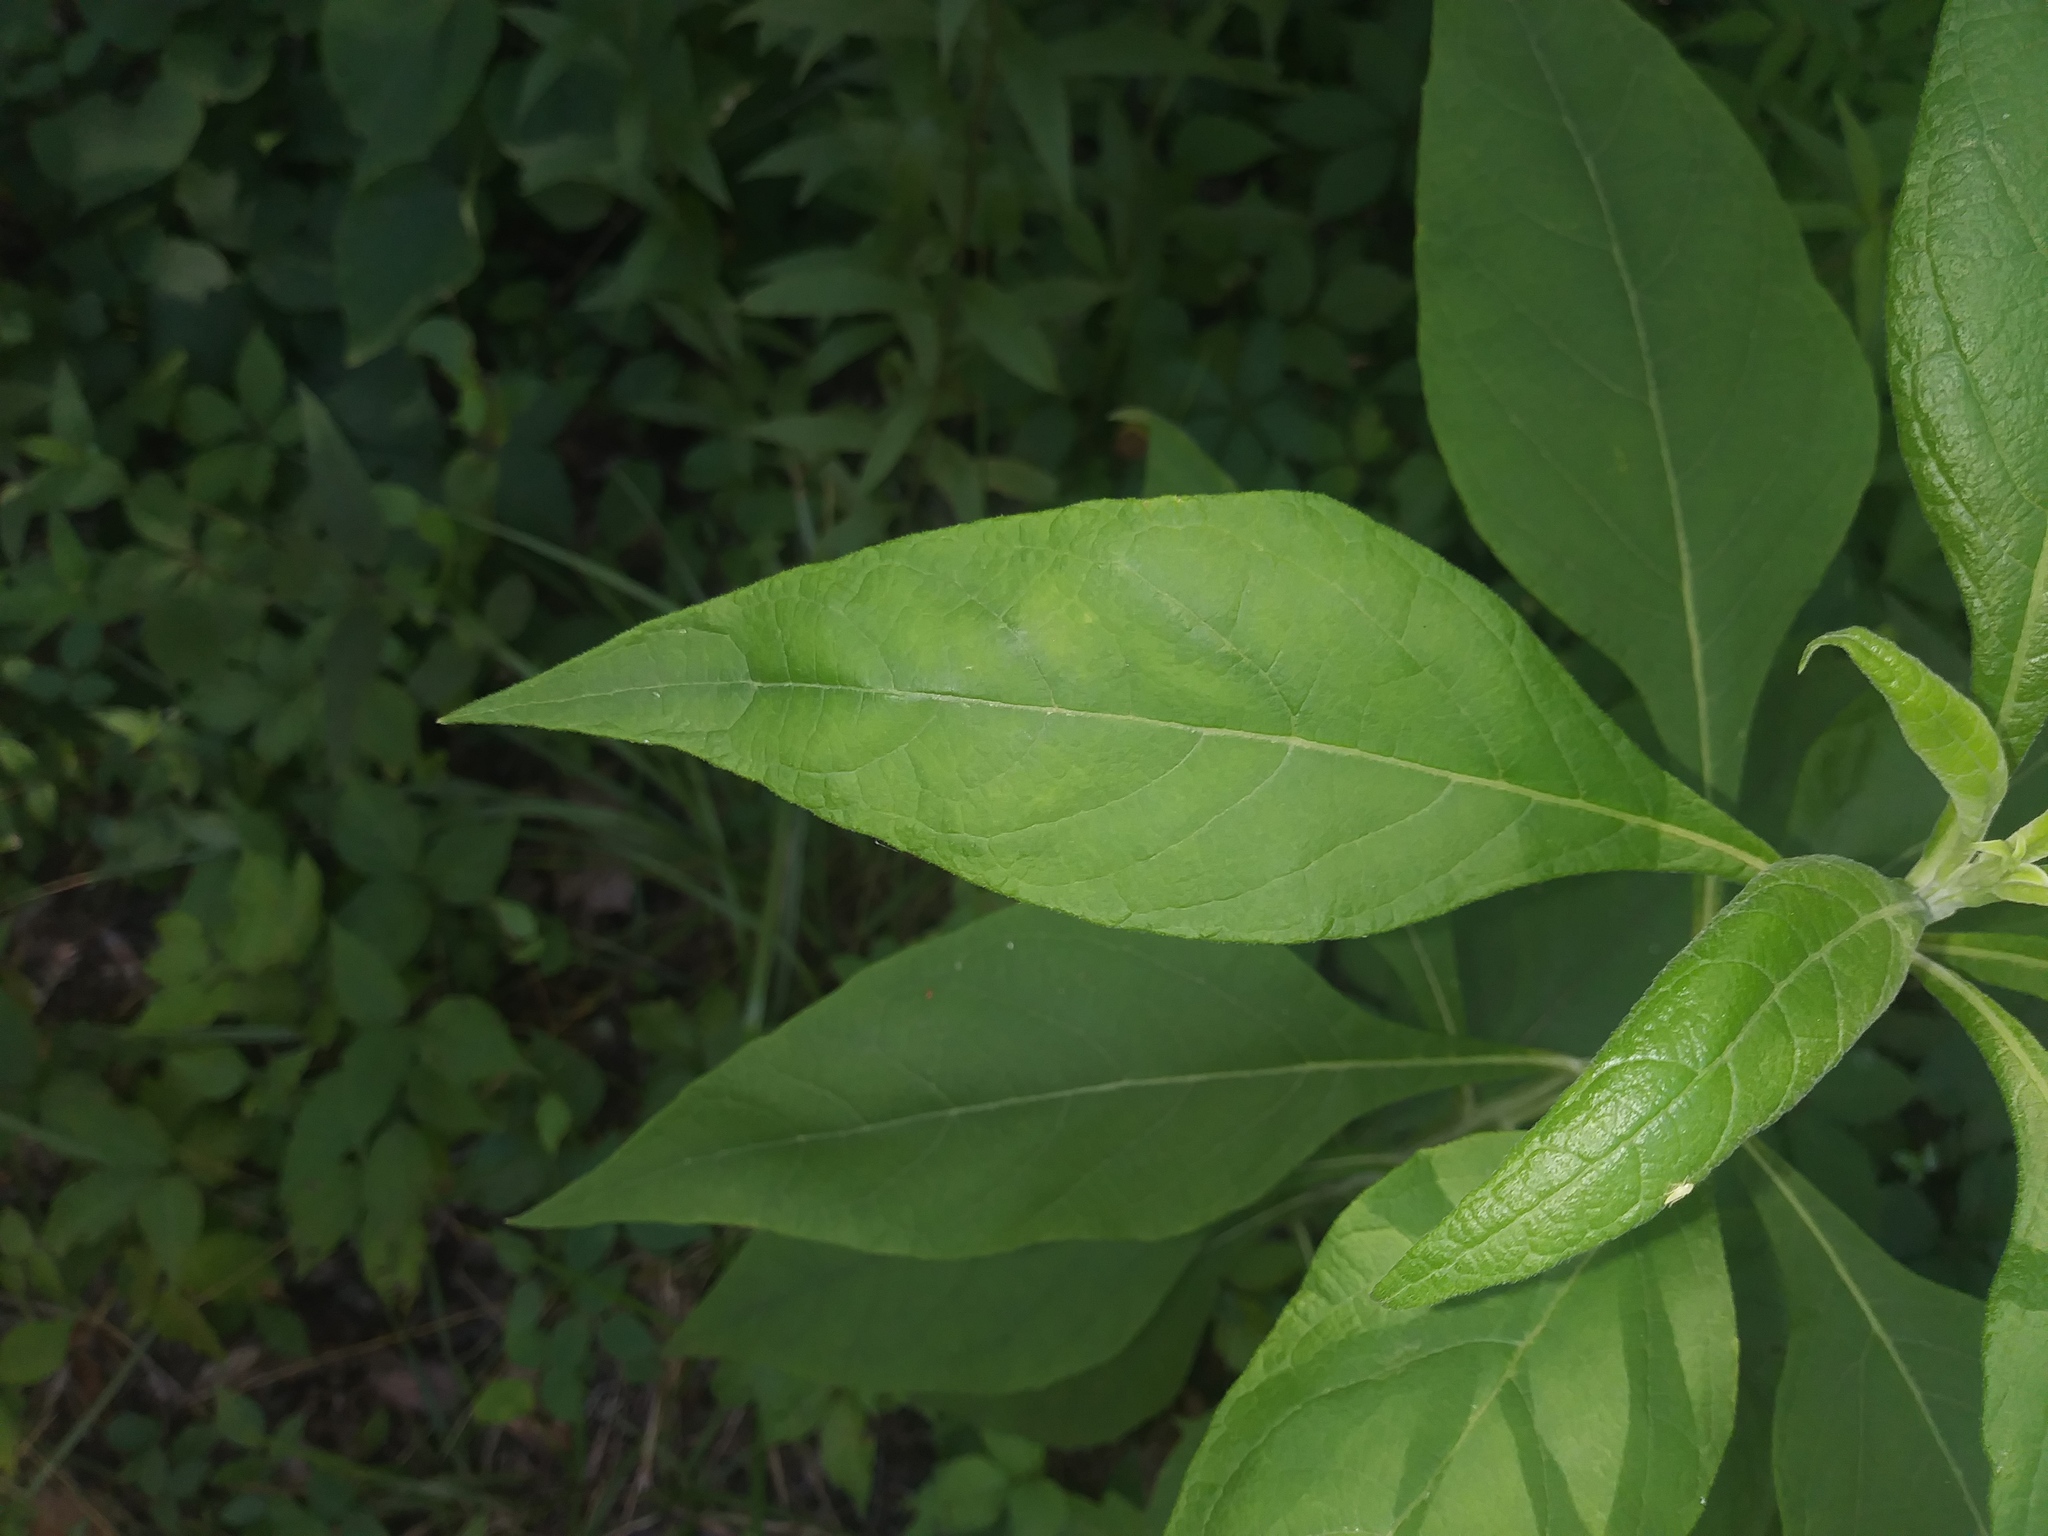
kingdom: Plantae
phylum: Tracheophyta
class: Magnoliopsida
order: Asterales
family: Asteraceae
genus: Verbesina
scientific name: Verbesina virginica
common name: Frostweed
